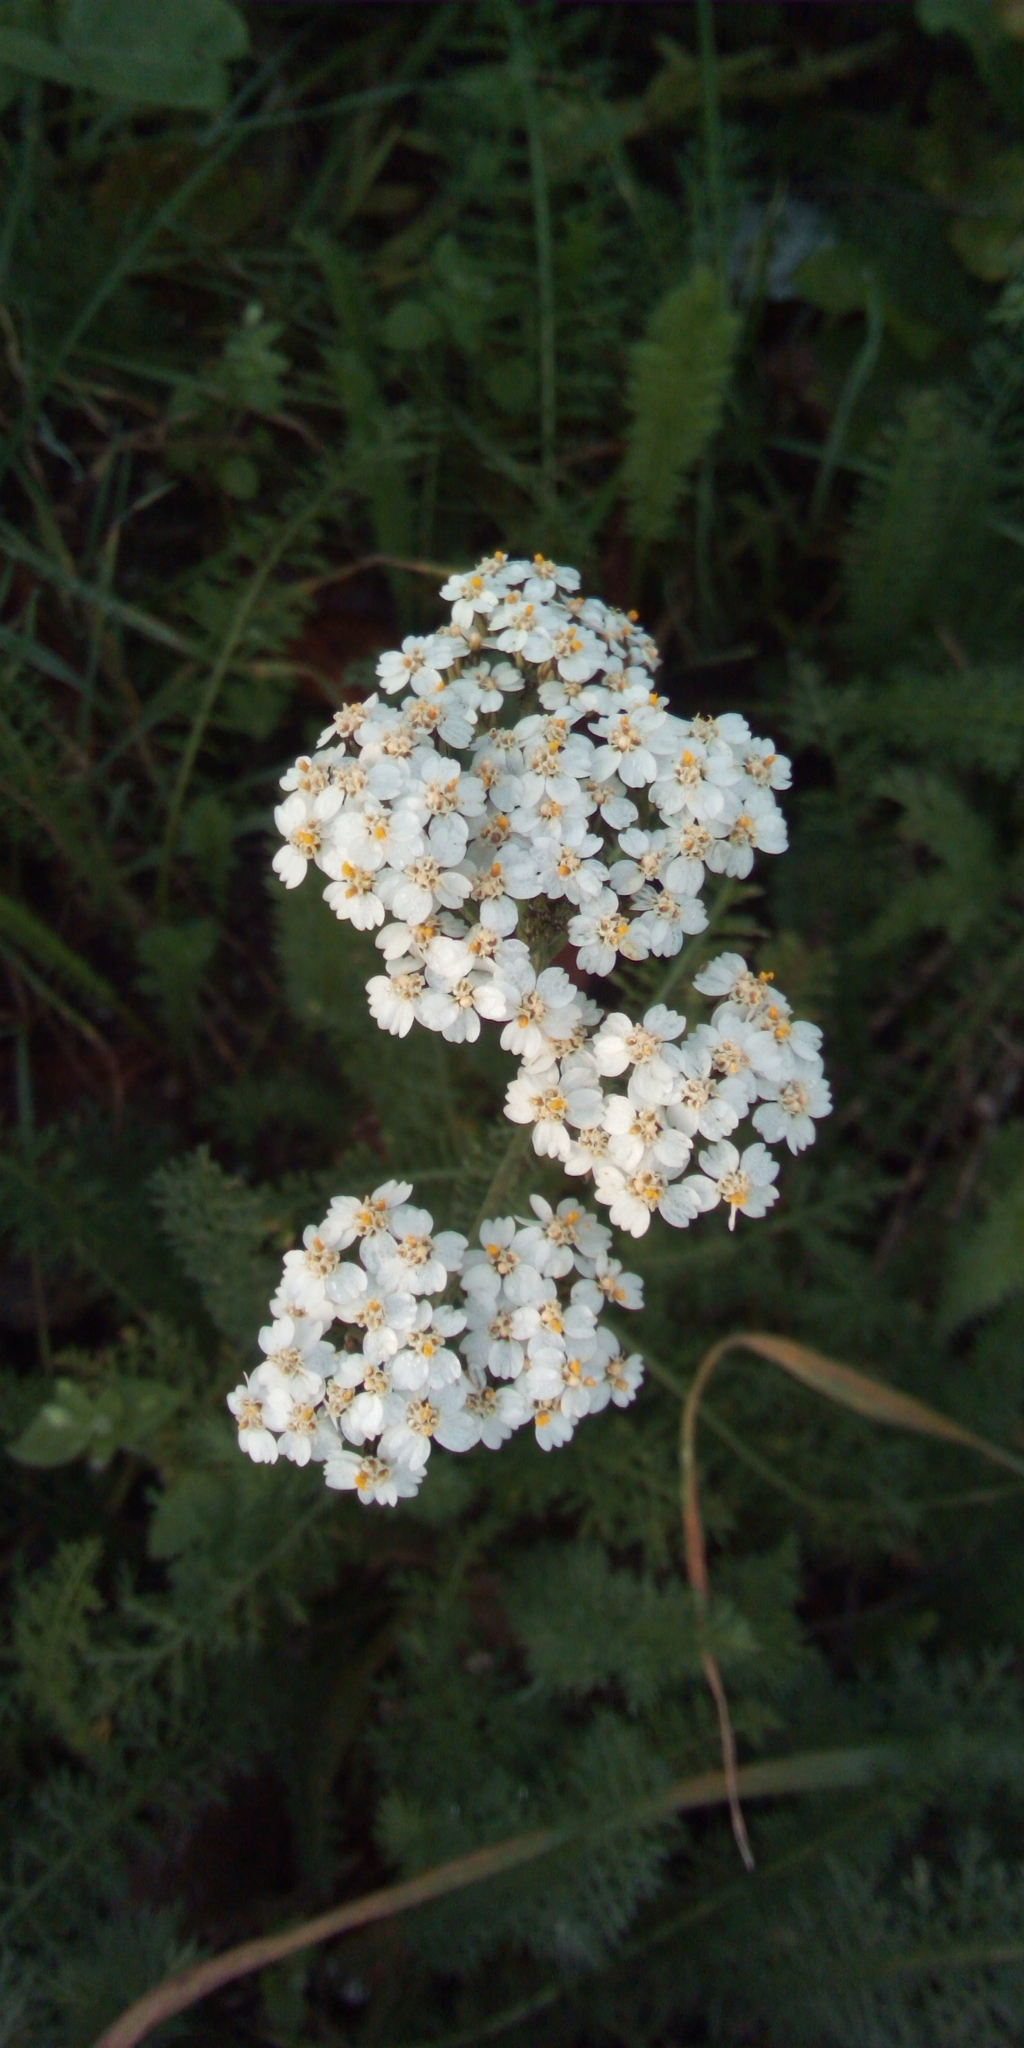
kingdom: Plantae
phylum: Tracheophyta
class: Magnoliopsida
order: Asterales
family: Asteraceae
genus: Achillea
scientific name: Achillea millefolium
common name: Yarrow
